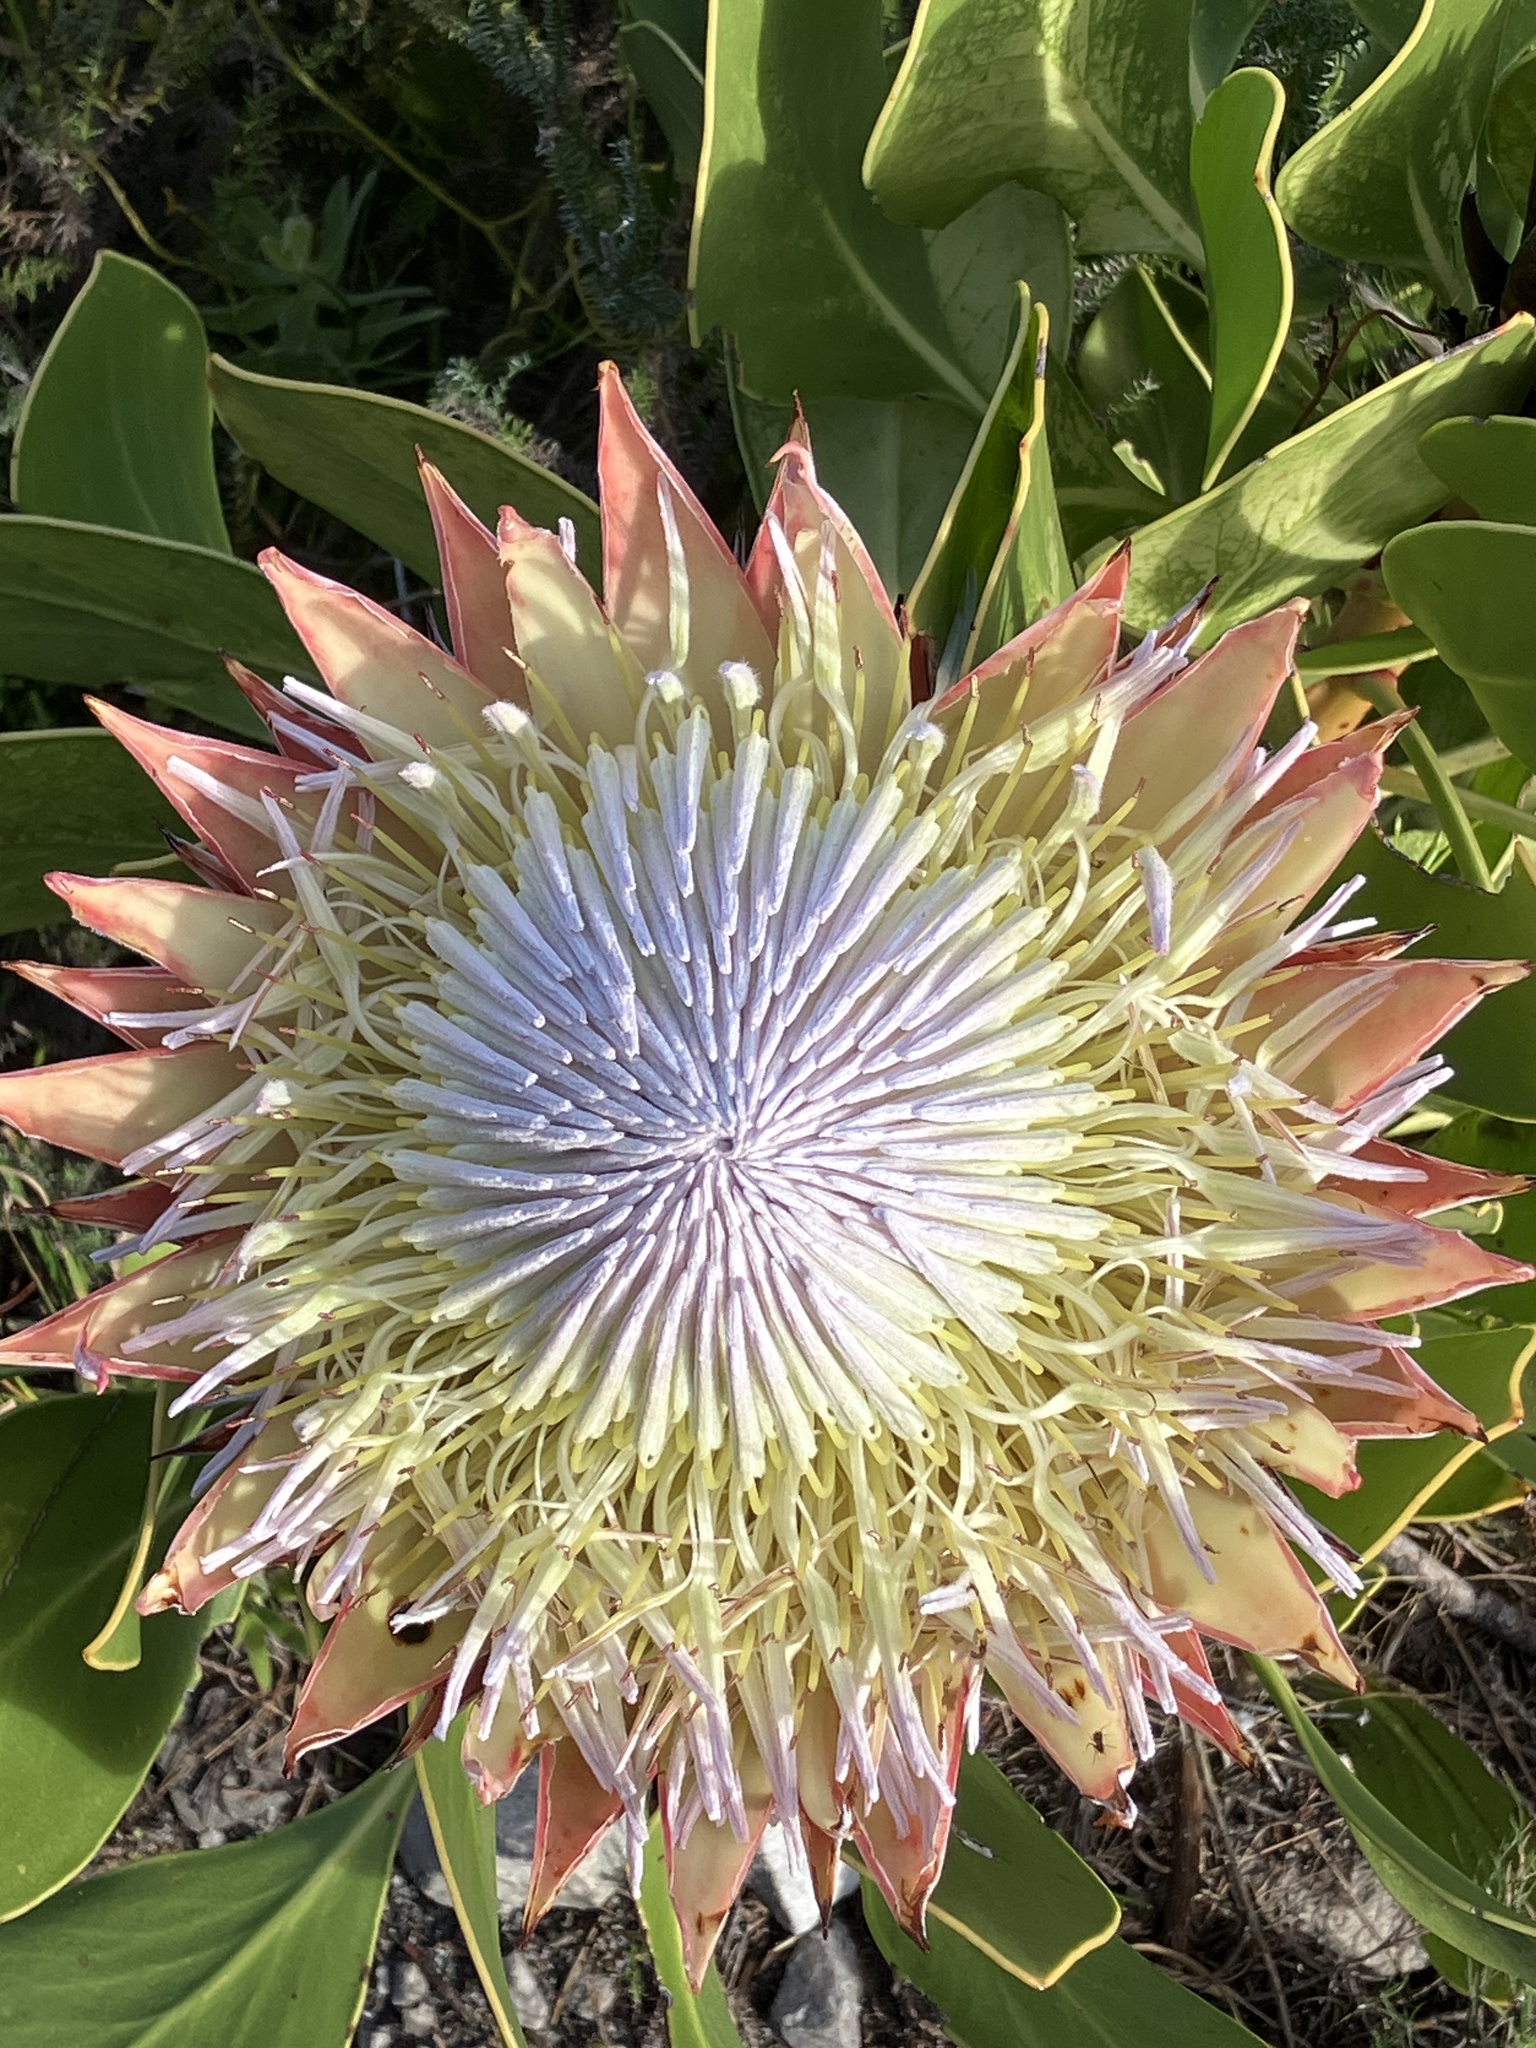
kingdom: Plantae
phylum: Tracheophyta
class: Magnoliopsida
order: Proteales
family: Proteaceae
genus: Protea
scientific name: Protea cynaroides
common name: King protea
